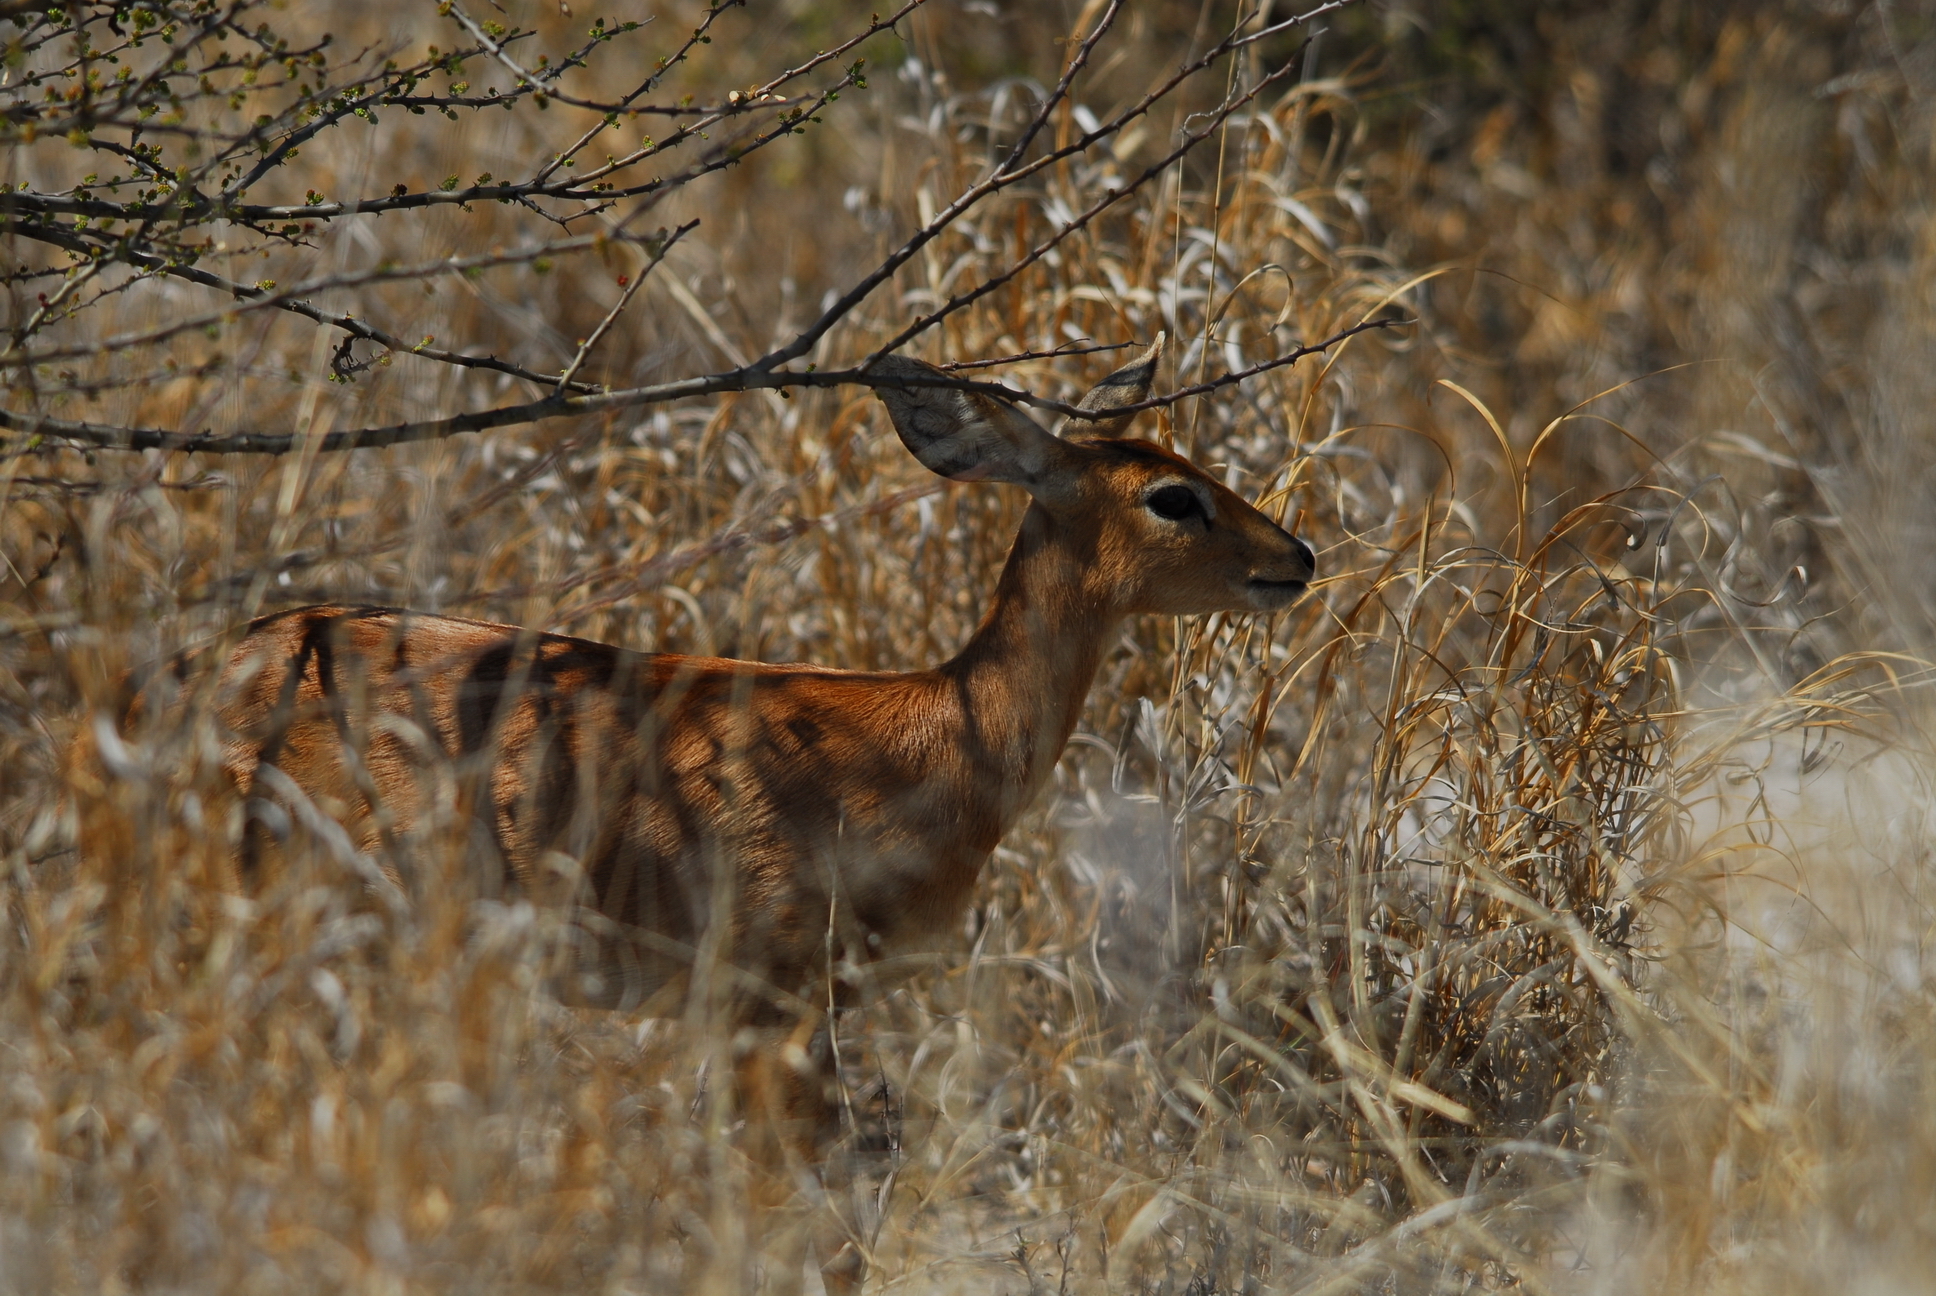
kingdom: Animalia
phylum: Chordata
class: Mammalia
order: Artiodactyla
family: Bovidae
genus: Raphicerus
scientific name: Raphicerus campestris
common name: Steenbok
